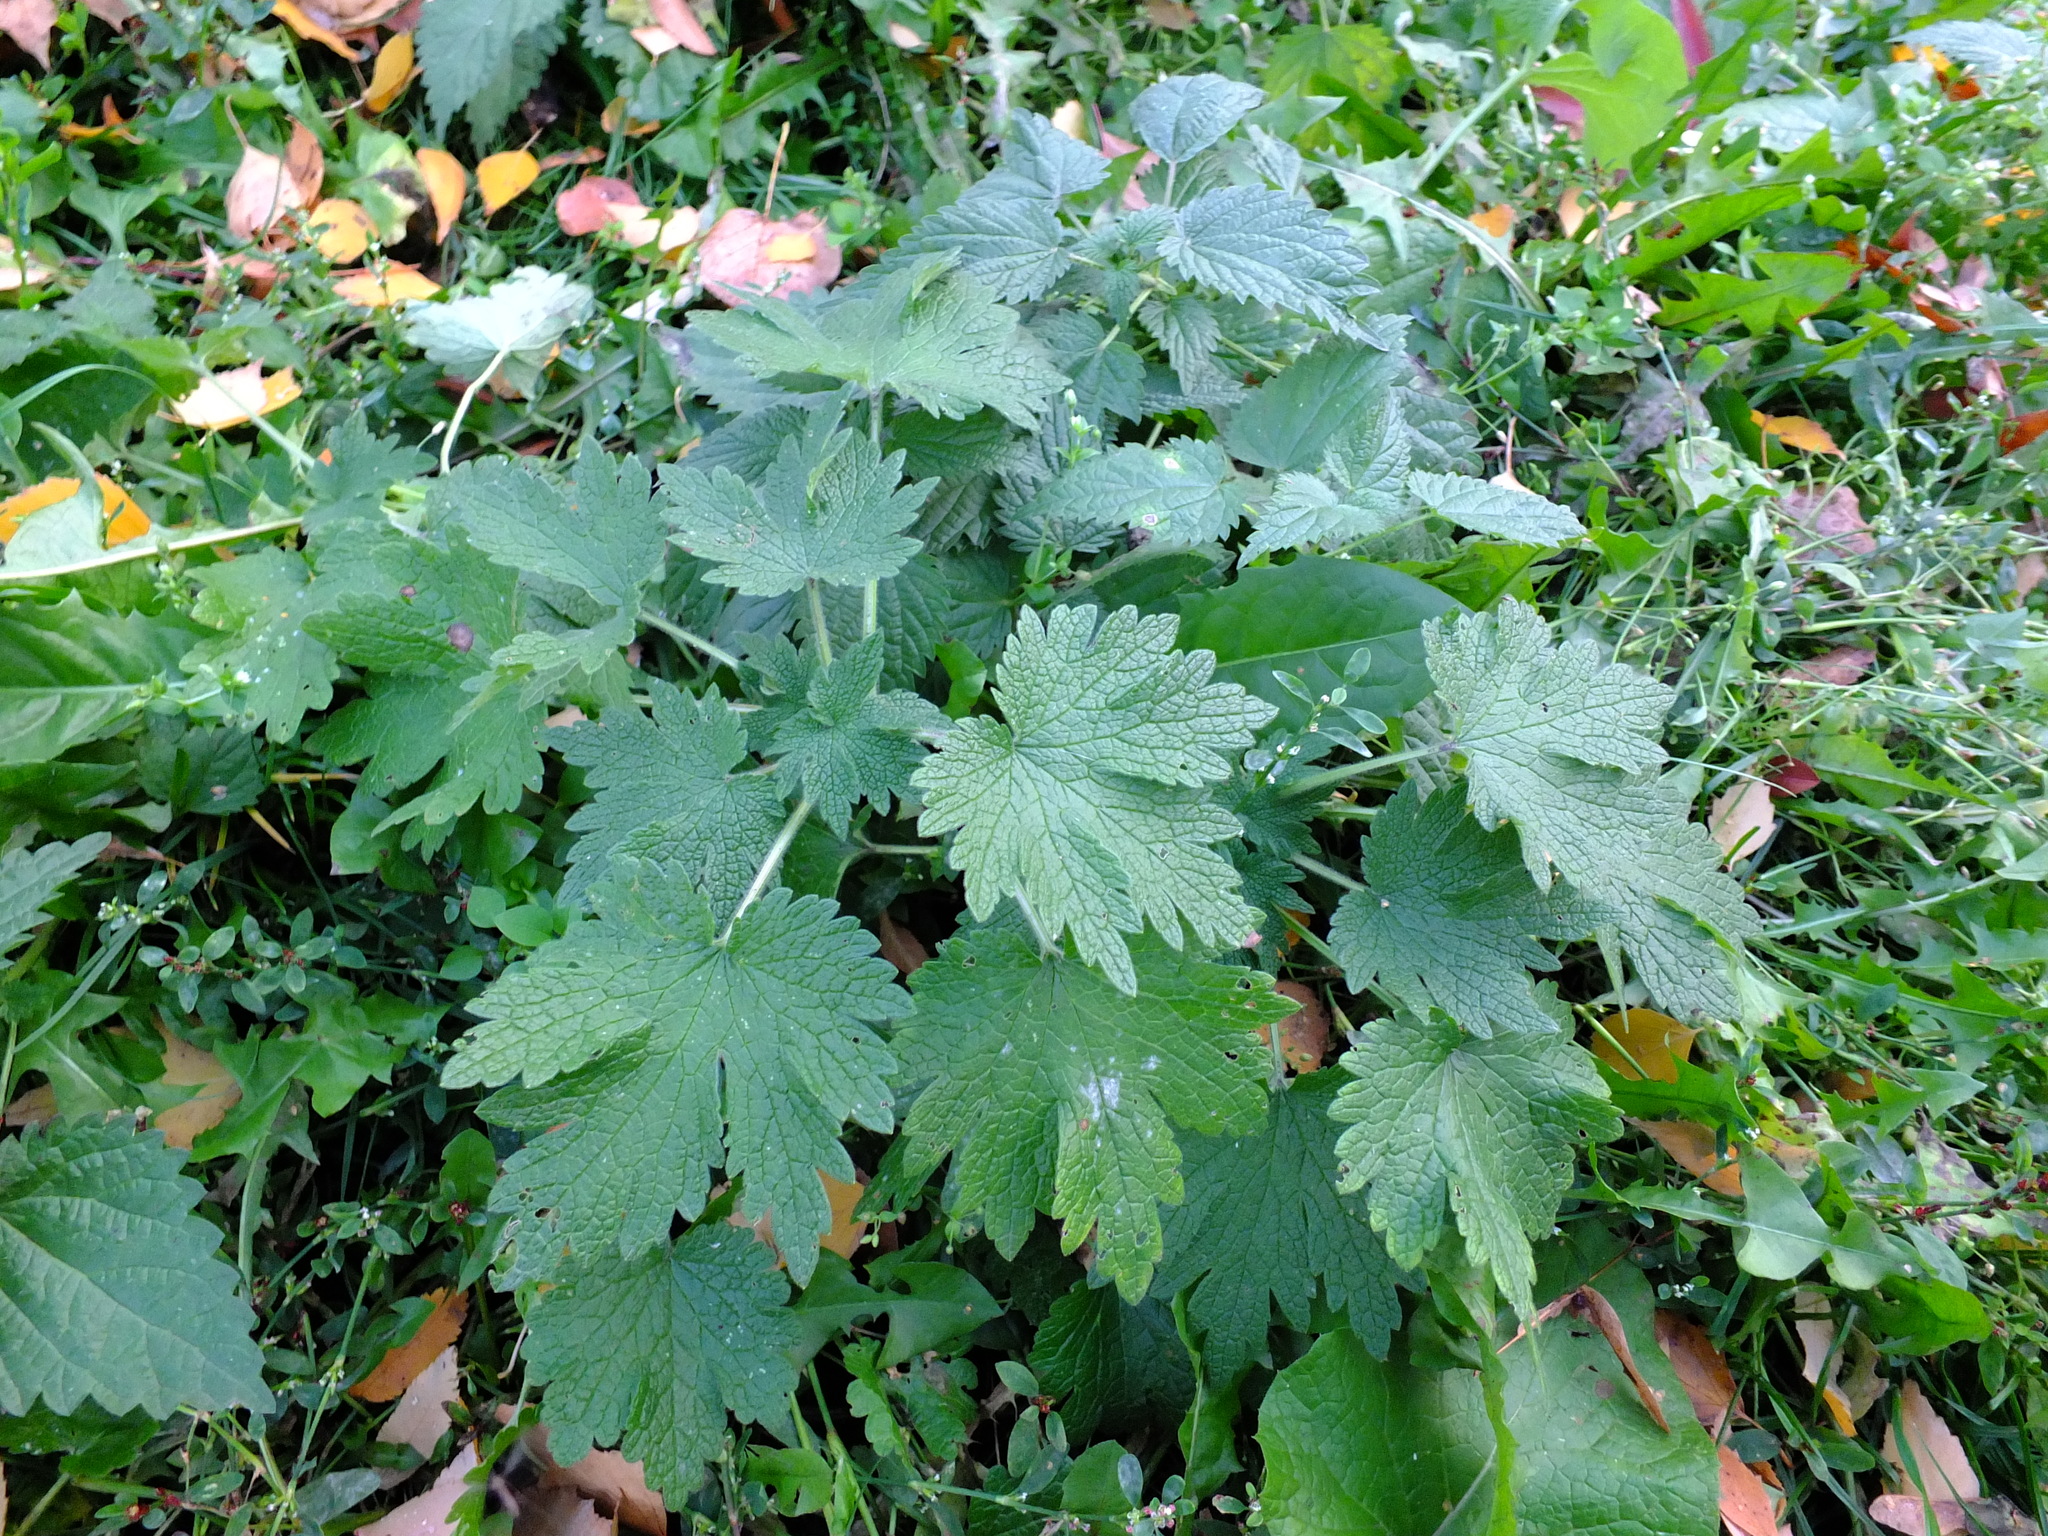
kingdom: Plantae
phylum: Tracheophyta
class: Magnoliopsida
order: Lamiales
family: Lamiaceae
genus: Leonurus
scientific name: Leonurus quinquelobatus
